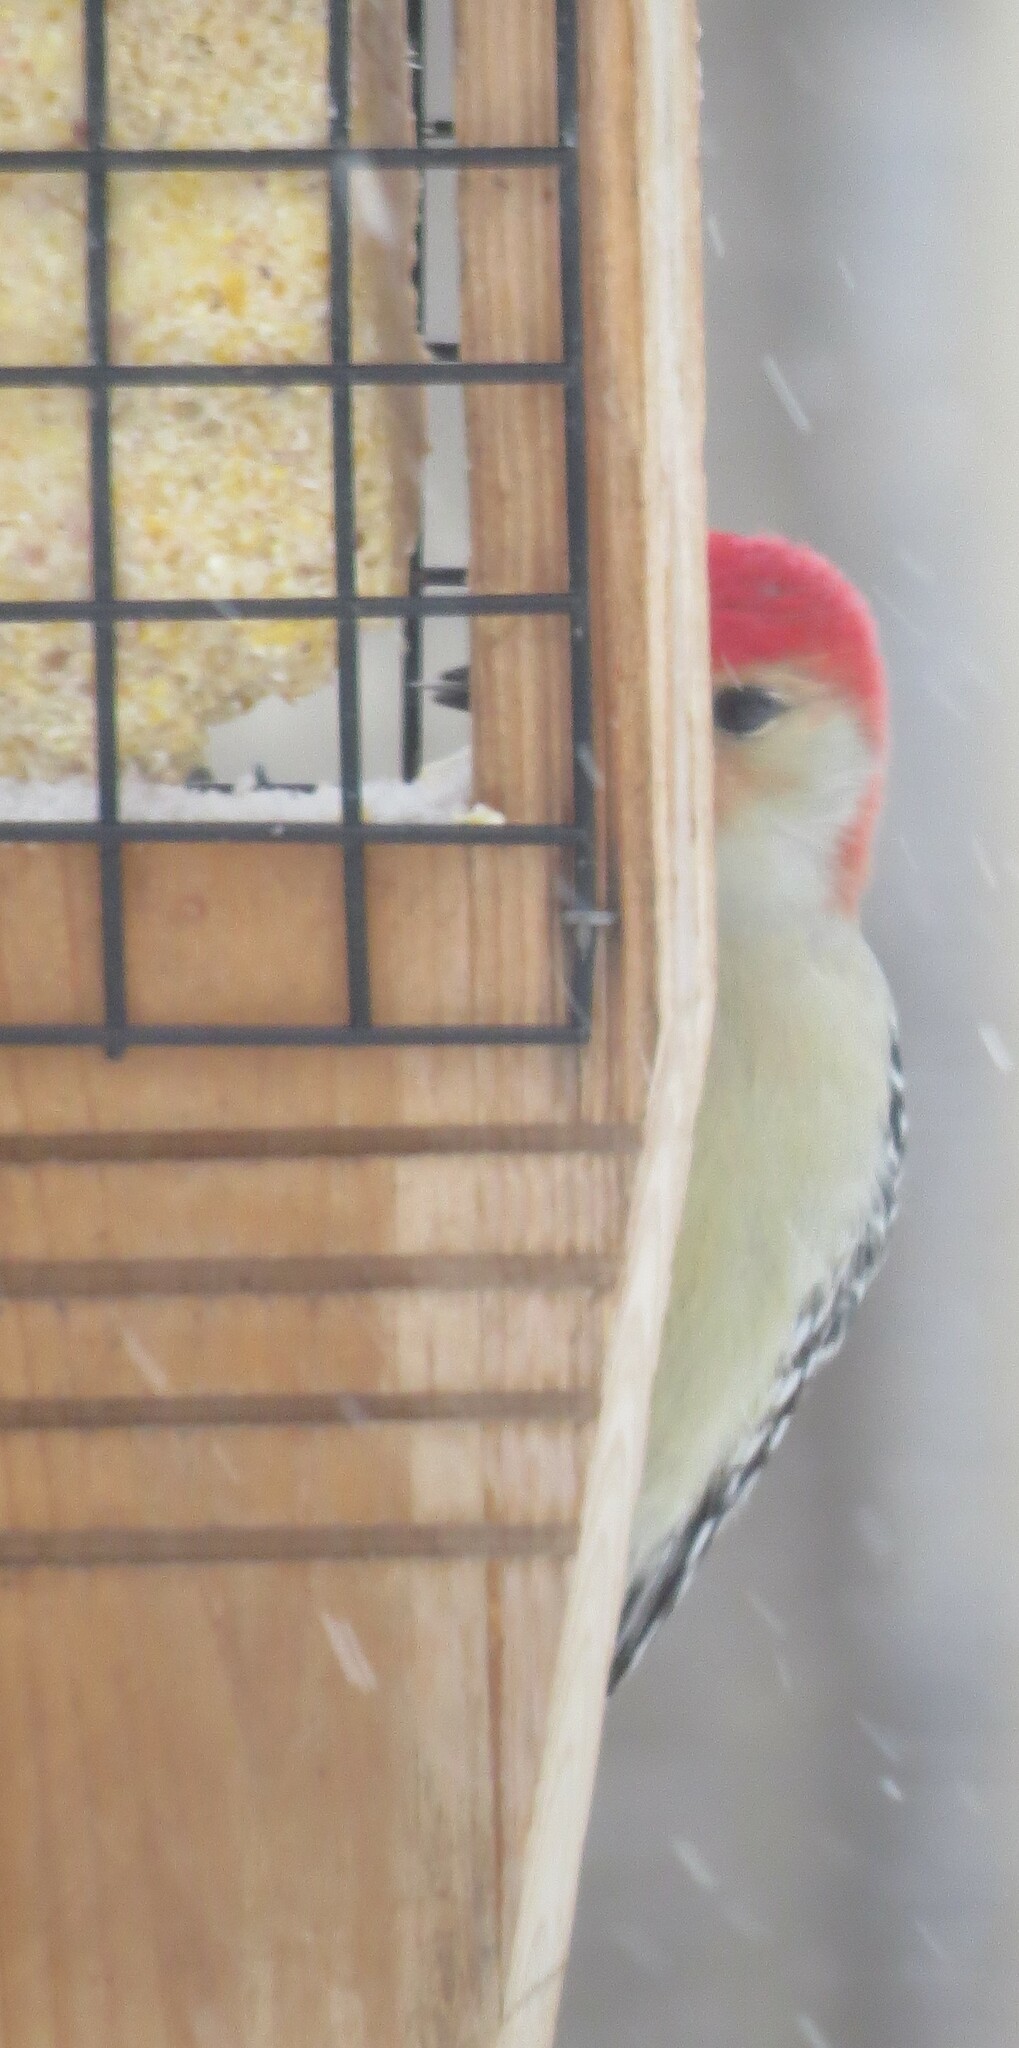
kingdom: Animalia
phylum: Chordata
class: Aves
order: Piciformes
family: Picidae
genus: Melanerpes
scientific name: Melanerpes carolinus
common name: Red-bellied woodpecker
